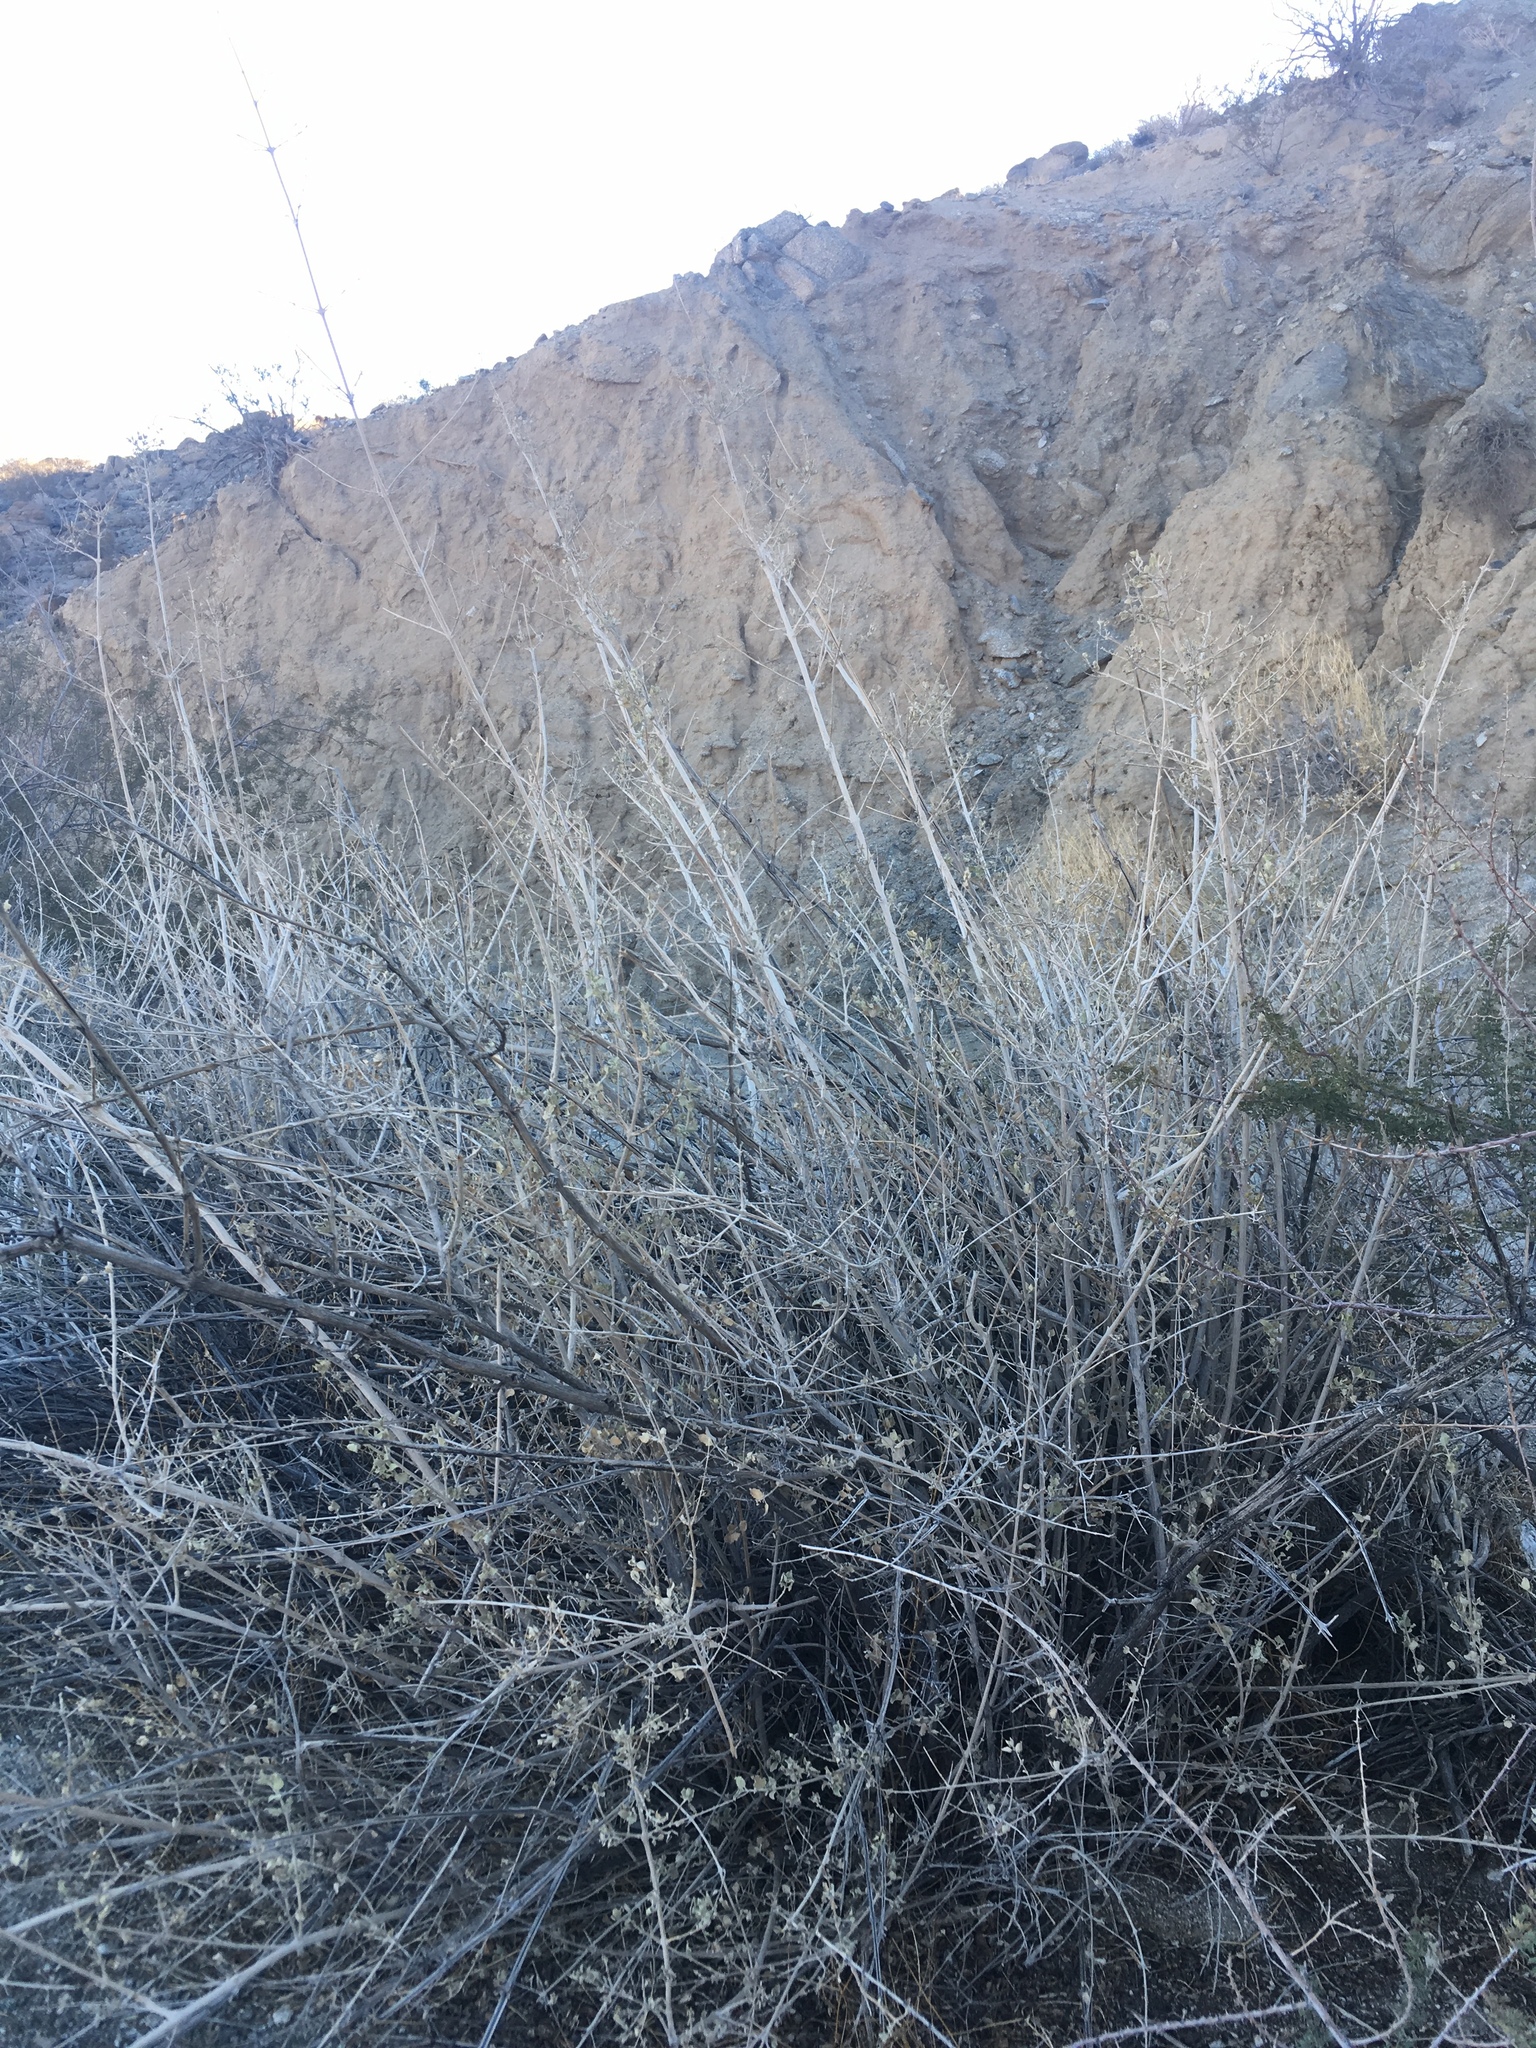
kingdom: Plantae
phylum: Tracheophyta
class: Magnoliopsida
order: Lamiales
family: Lamiaceae
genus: Condea
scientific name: Condea emoryi
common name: Chia
